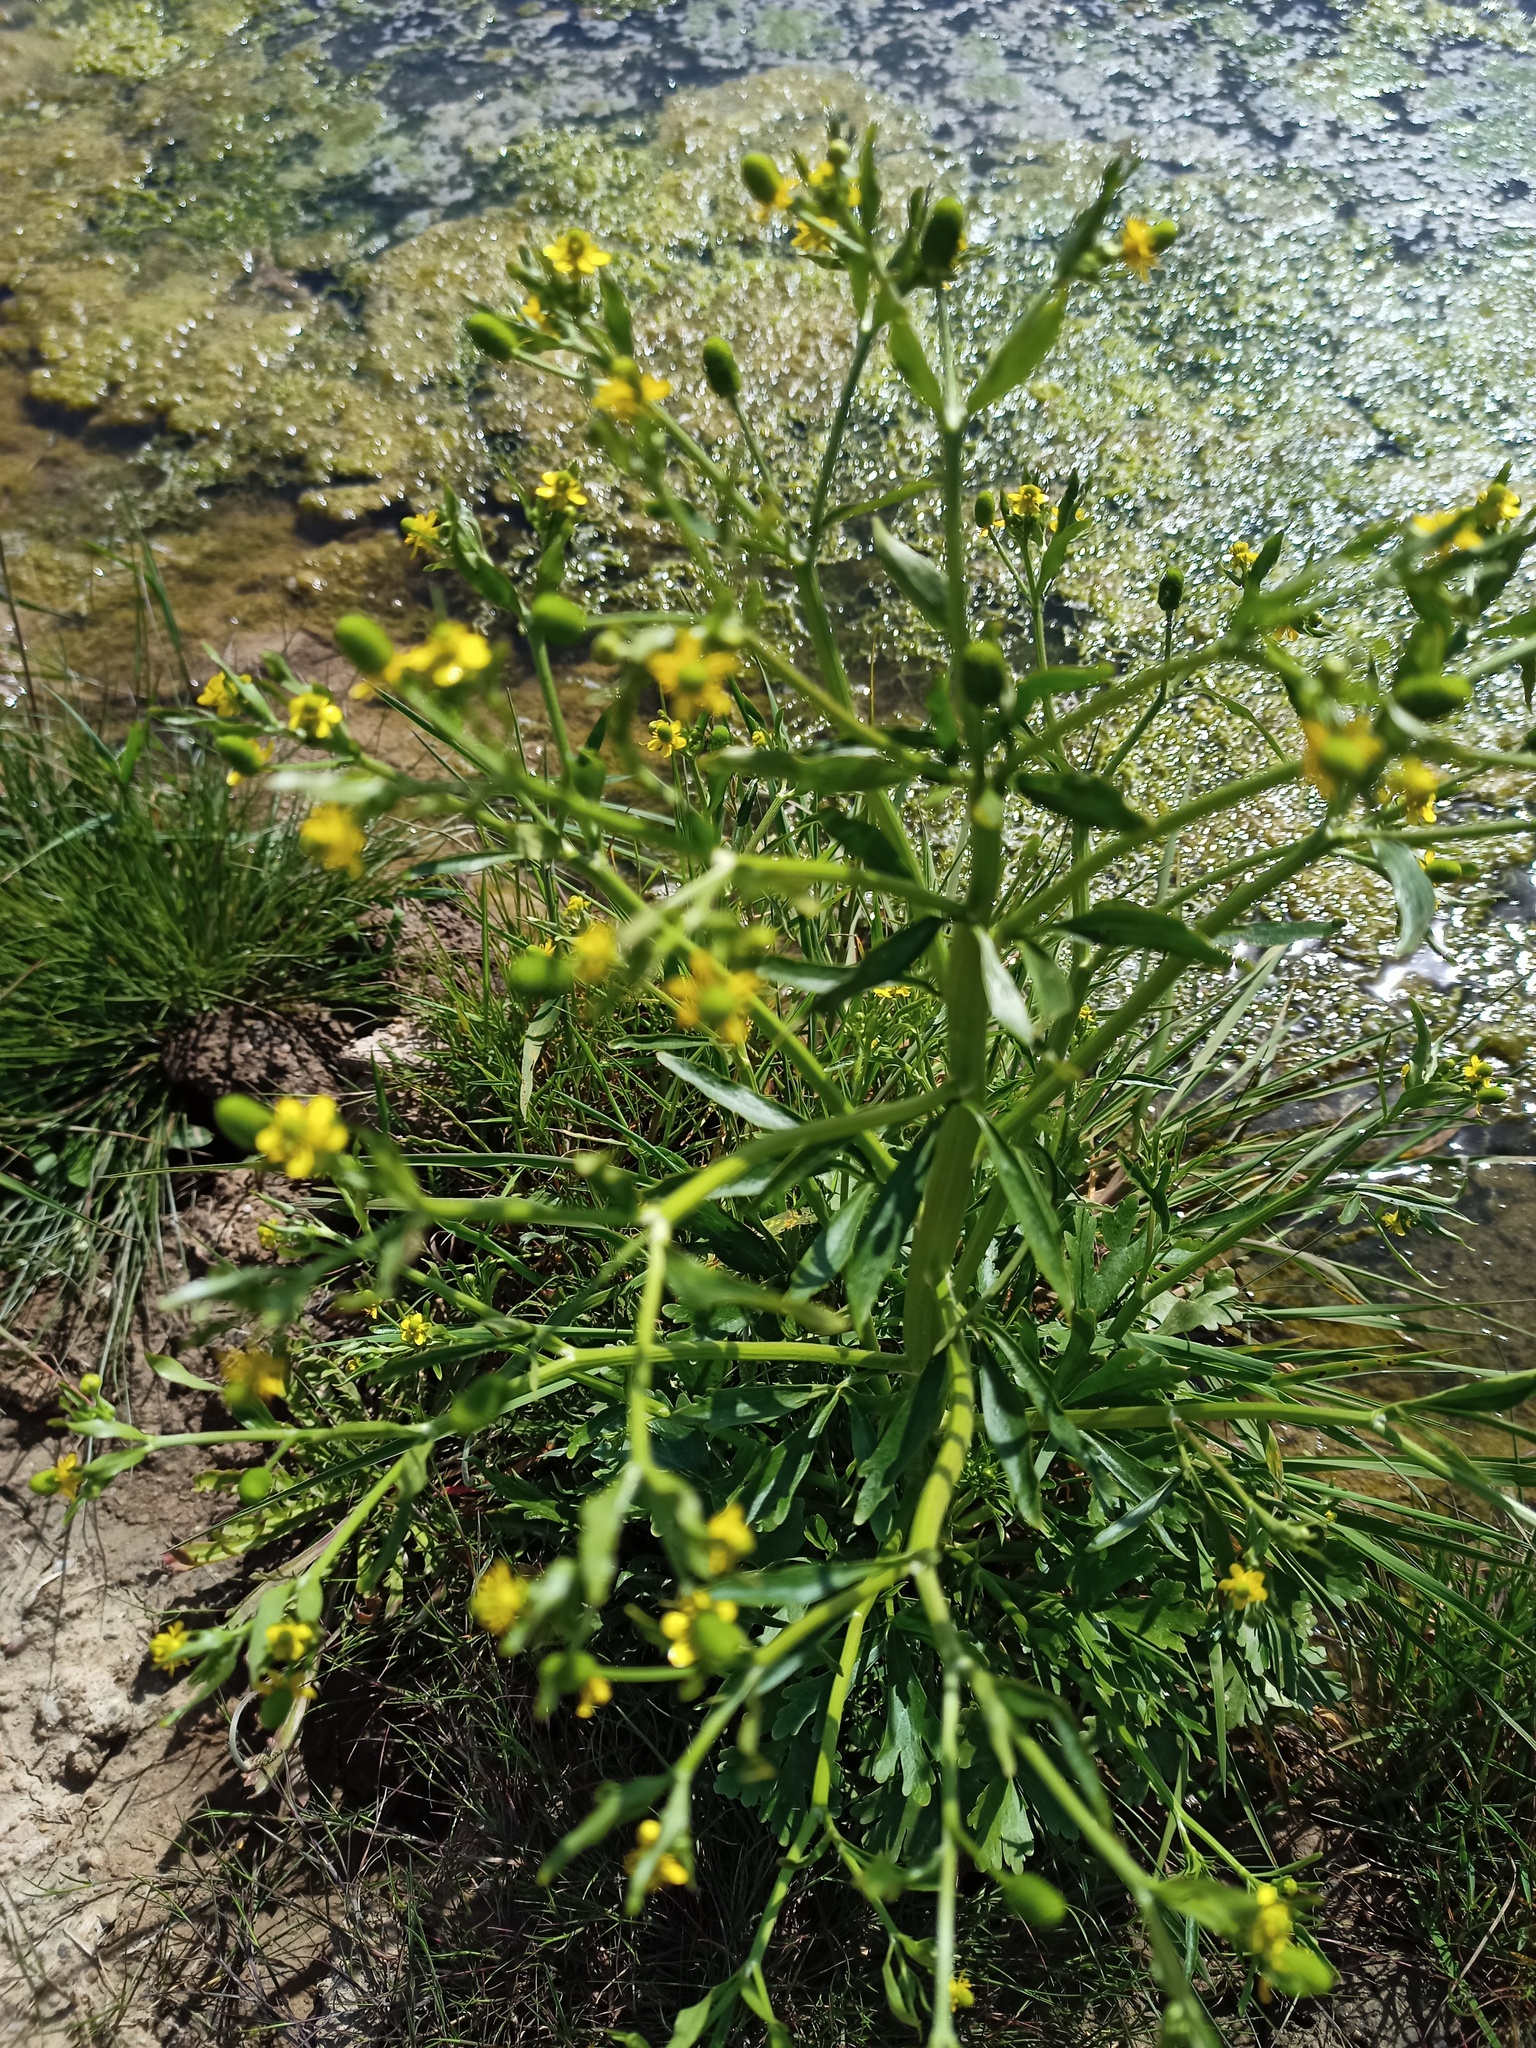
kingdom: Plantae
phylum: Tracheophyta
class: Magnoliopsida
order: Ranunculales
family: Ranunculaceae
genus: Ranunculus
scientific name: Ranunculus sceleratus
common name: Celery-leaved buttercup
